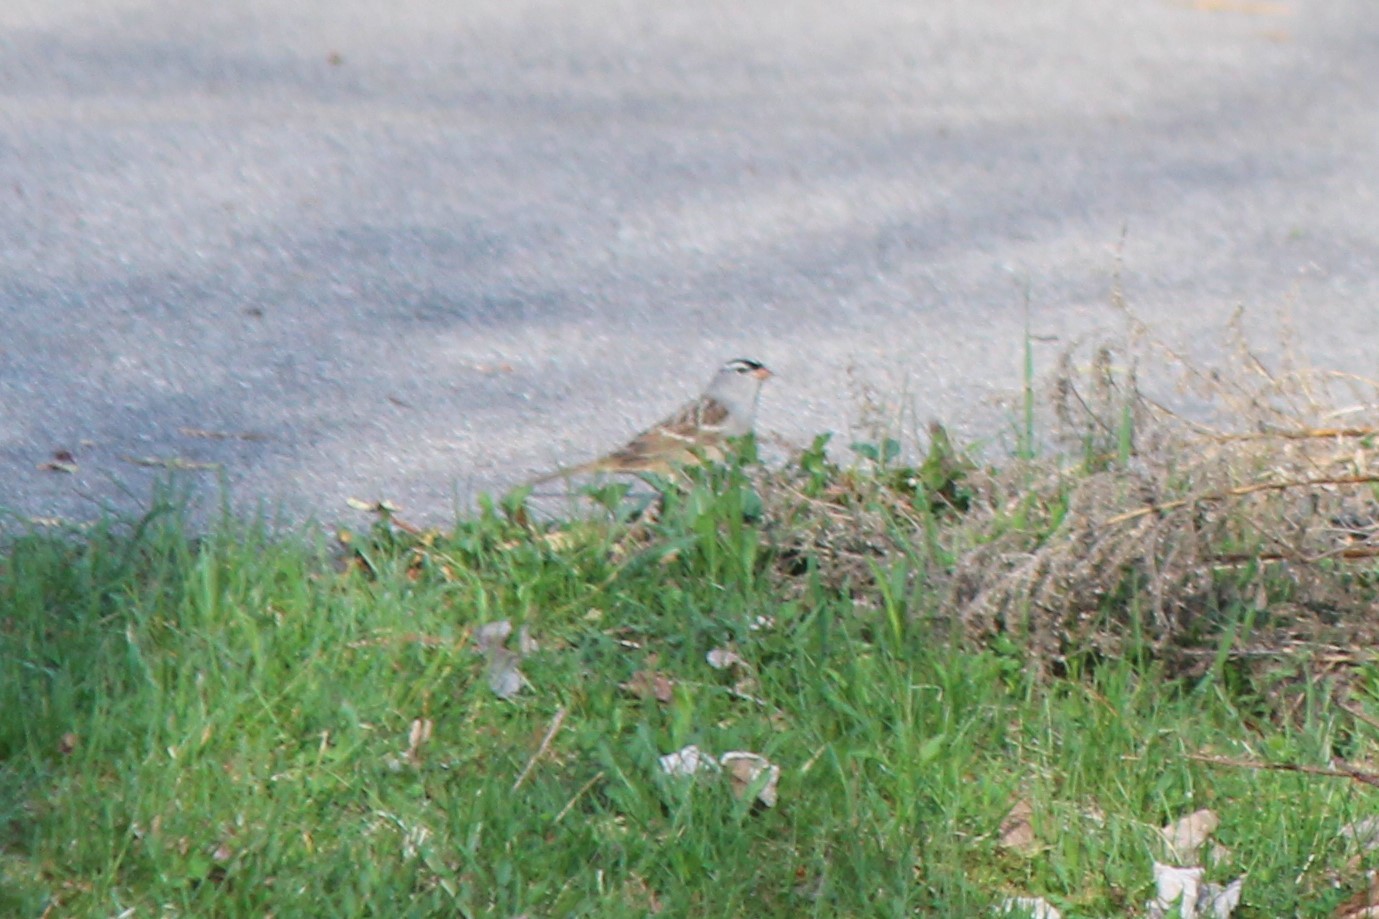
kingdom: Animalia
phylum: Chordata
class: Aves
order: Passeriformes
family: Passerellidae
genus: Zonotrichia
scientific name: Zonotrichia leucophrys
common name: White-crowned sparrow
